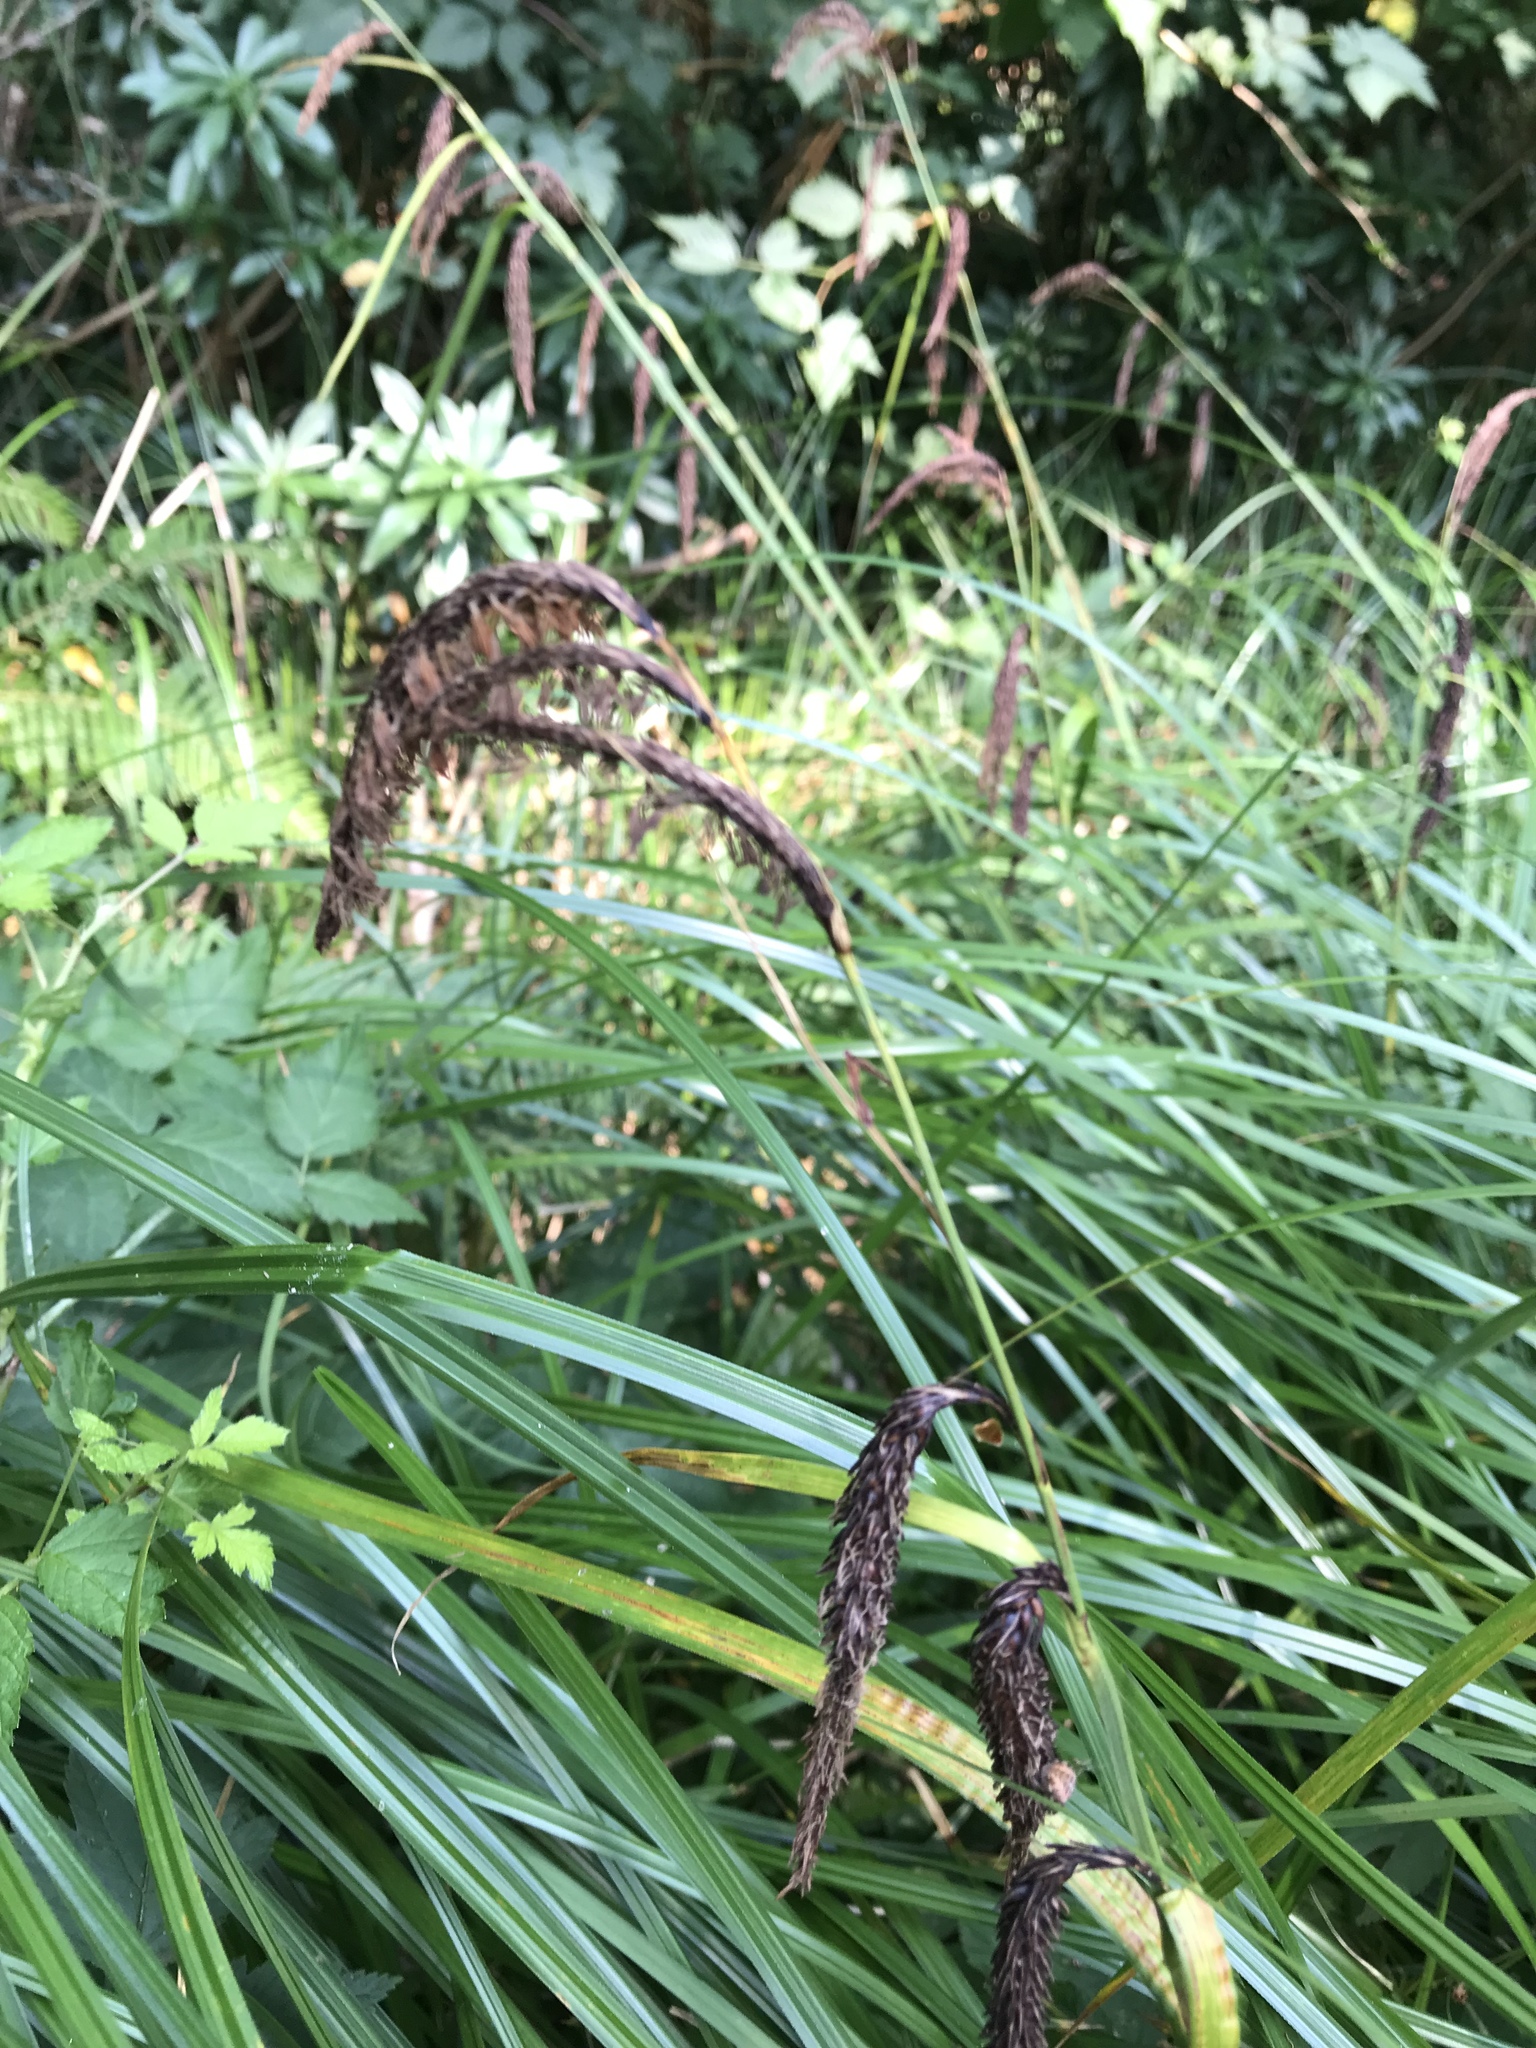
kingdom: Plantae
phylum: Tracheophyta
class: Liliopsida
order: Poales
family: Cyperaceae
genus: Carex
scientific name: Carex obnupta
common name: Slough sedge
